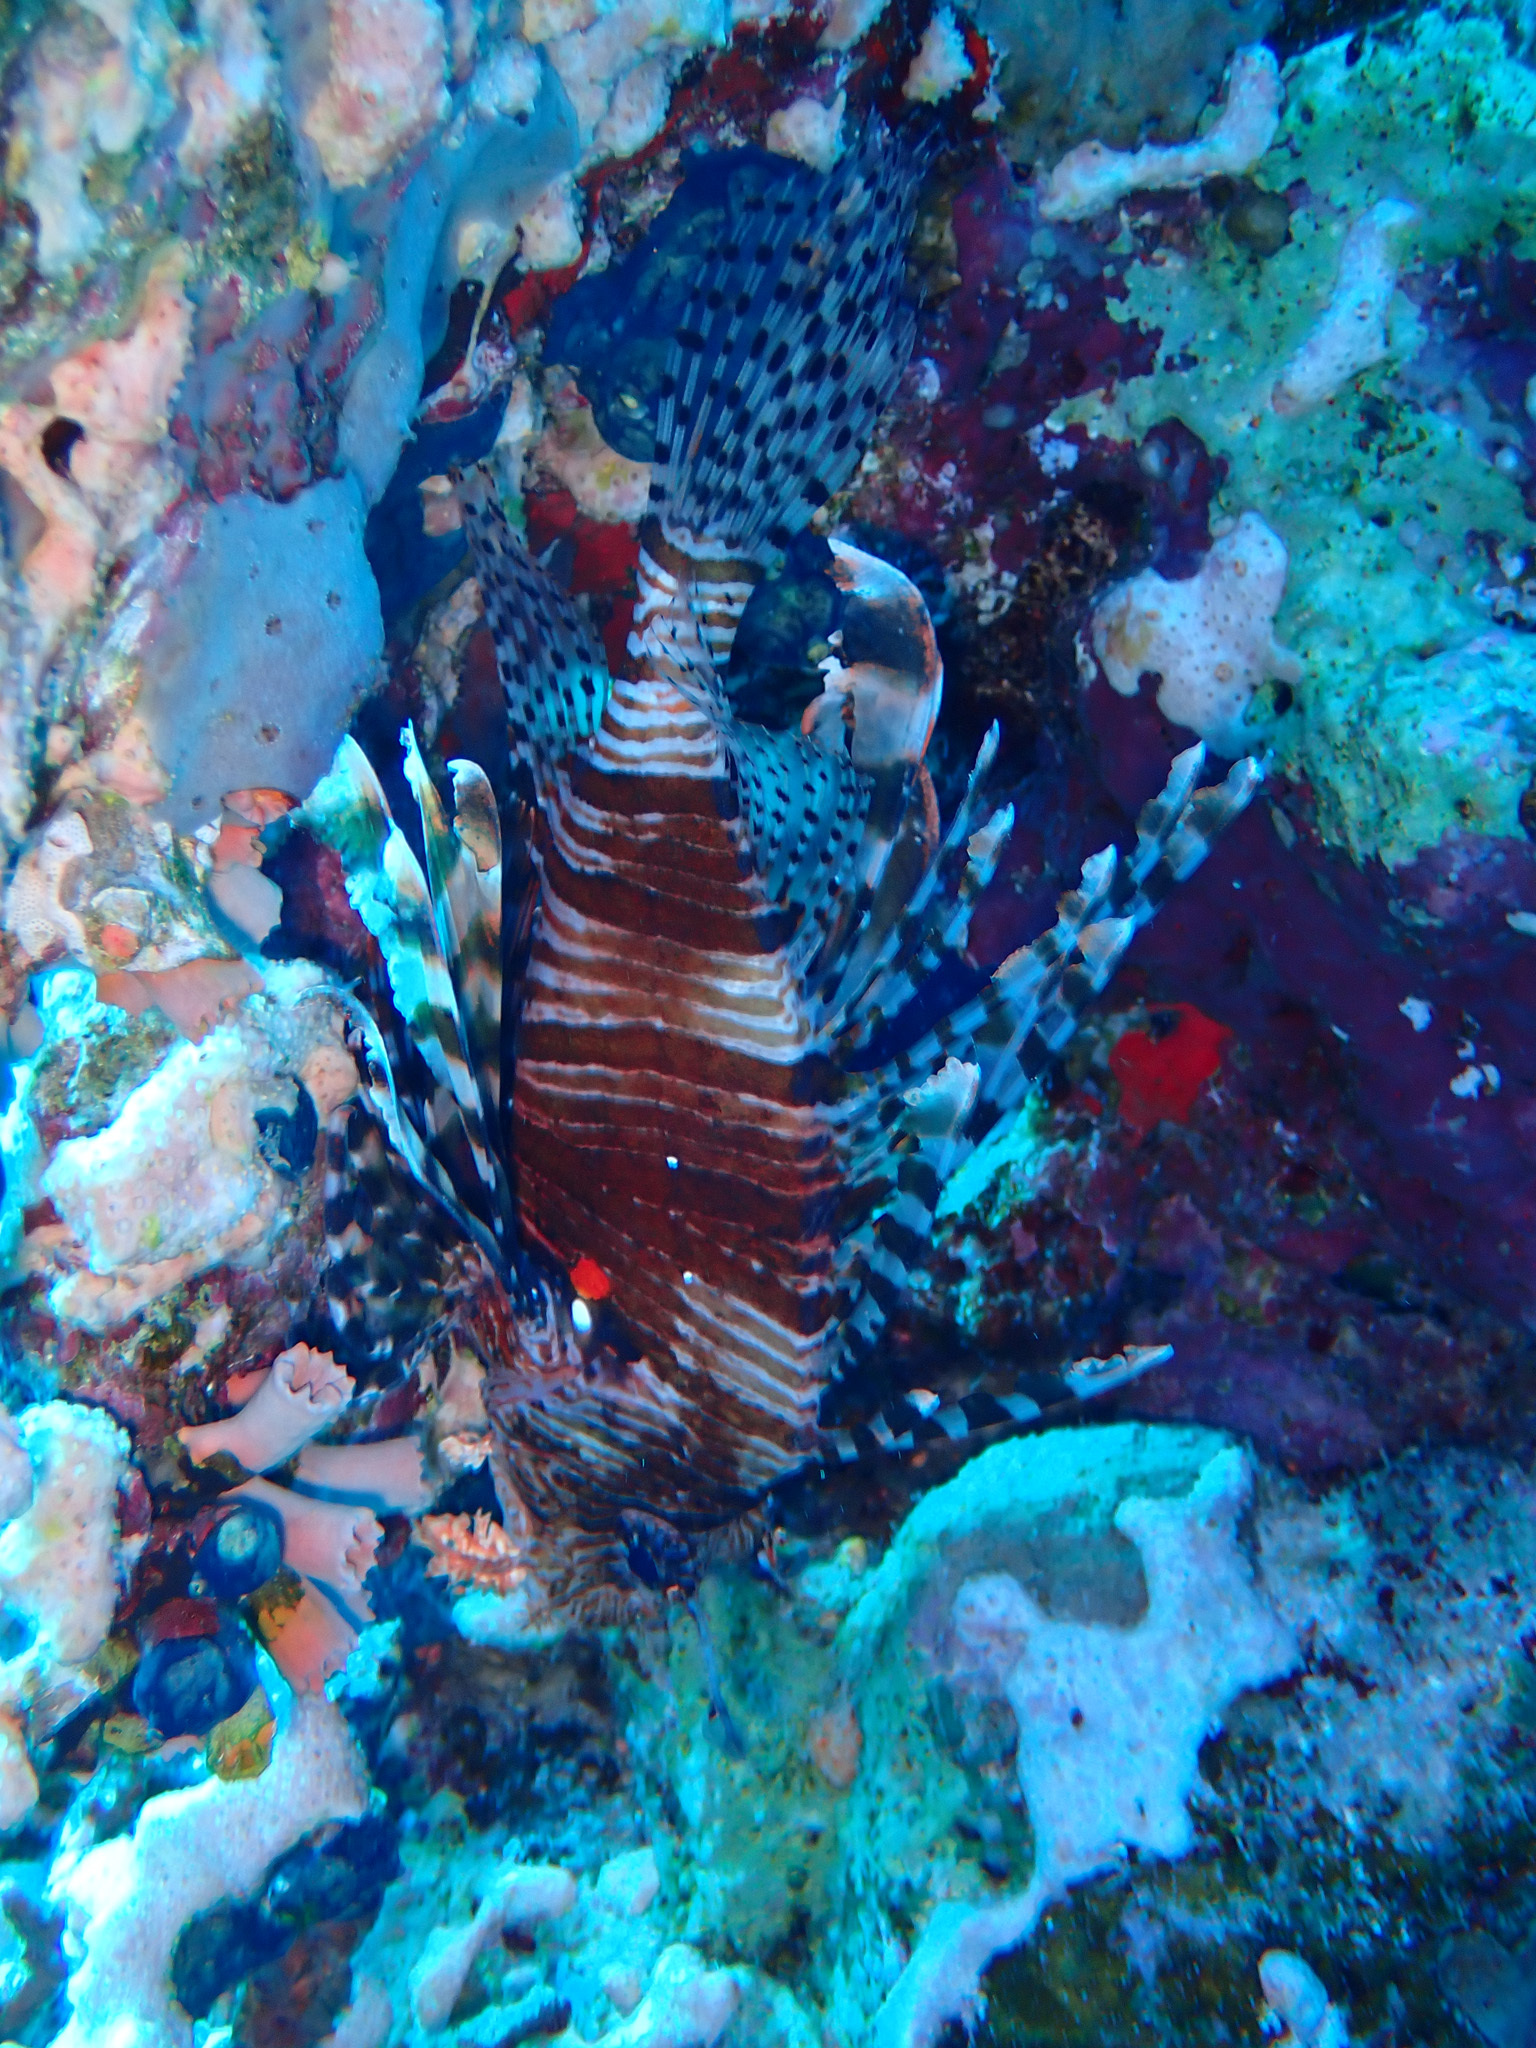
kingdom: Animalia
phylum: Chordata
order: Scorpaeniformes
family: Scorpaenidae
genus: Pterois
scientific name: Pterois miles
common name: Devil firefish
